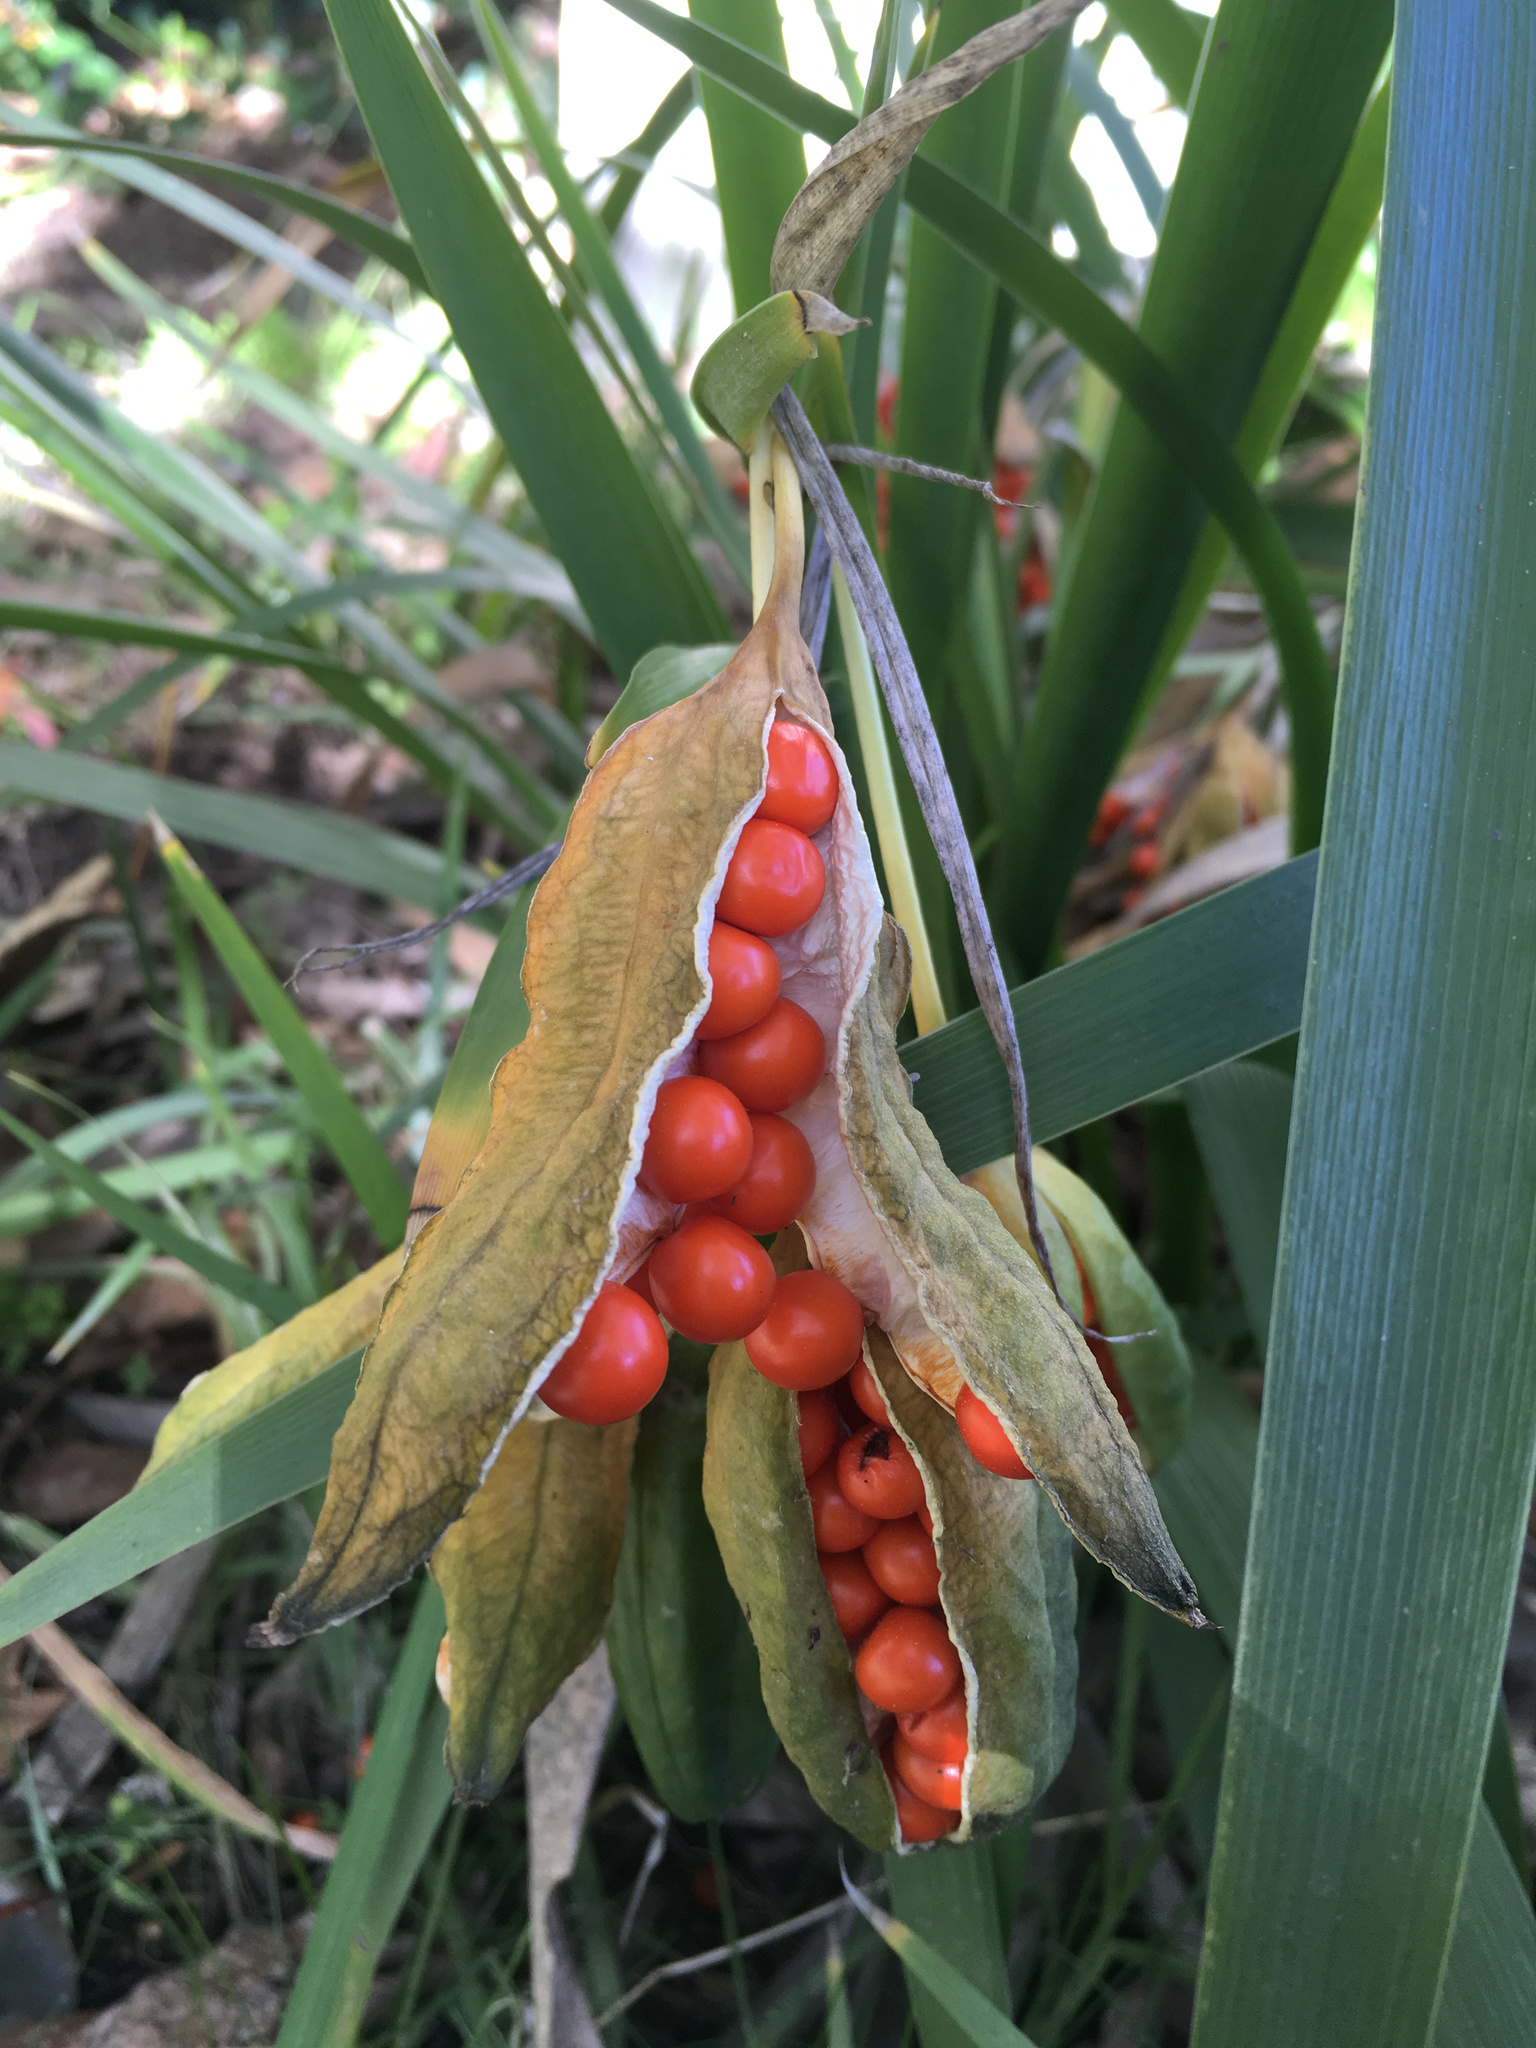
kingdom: Plantae
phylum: Tracheophyta
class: Liliopsida
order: Asparagales
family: Iridaceae
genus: Iris
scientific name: Iris foetidissima
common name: Stinking iris
